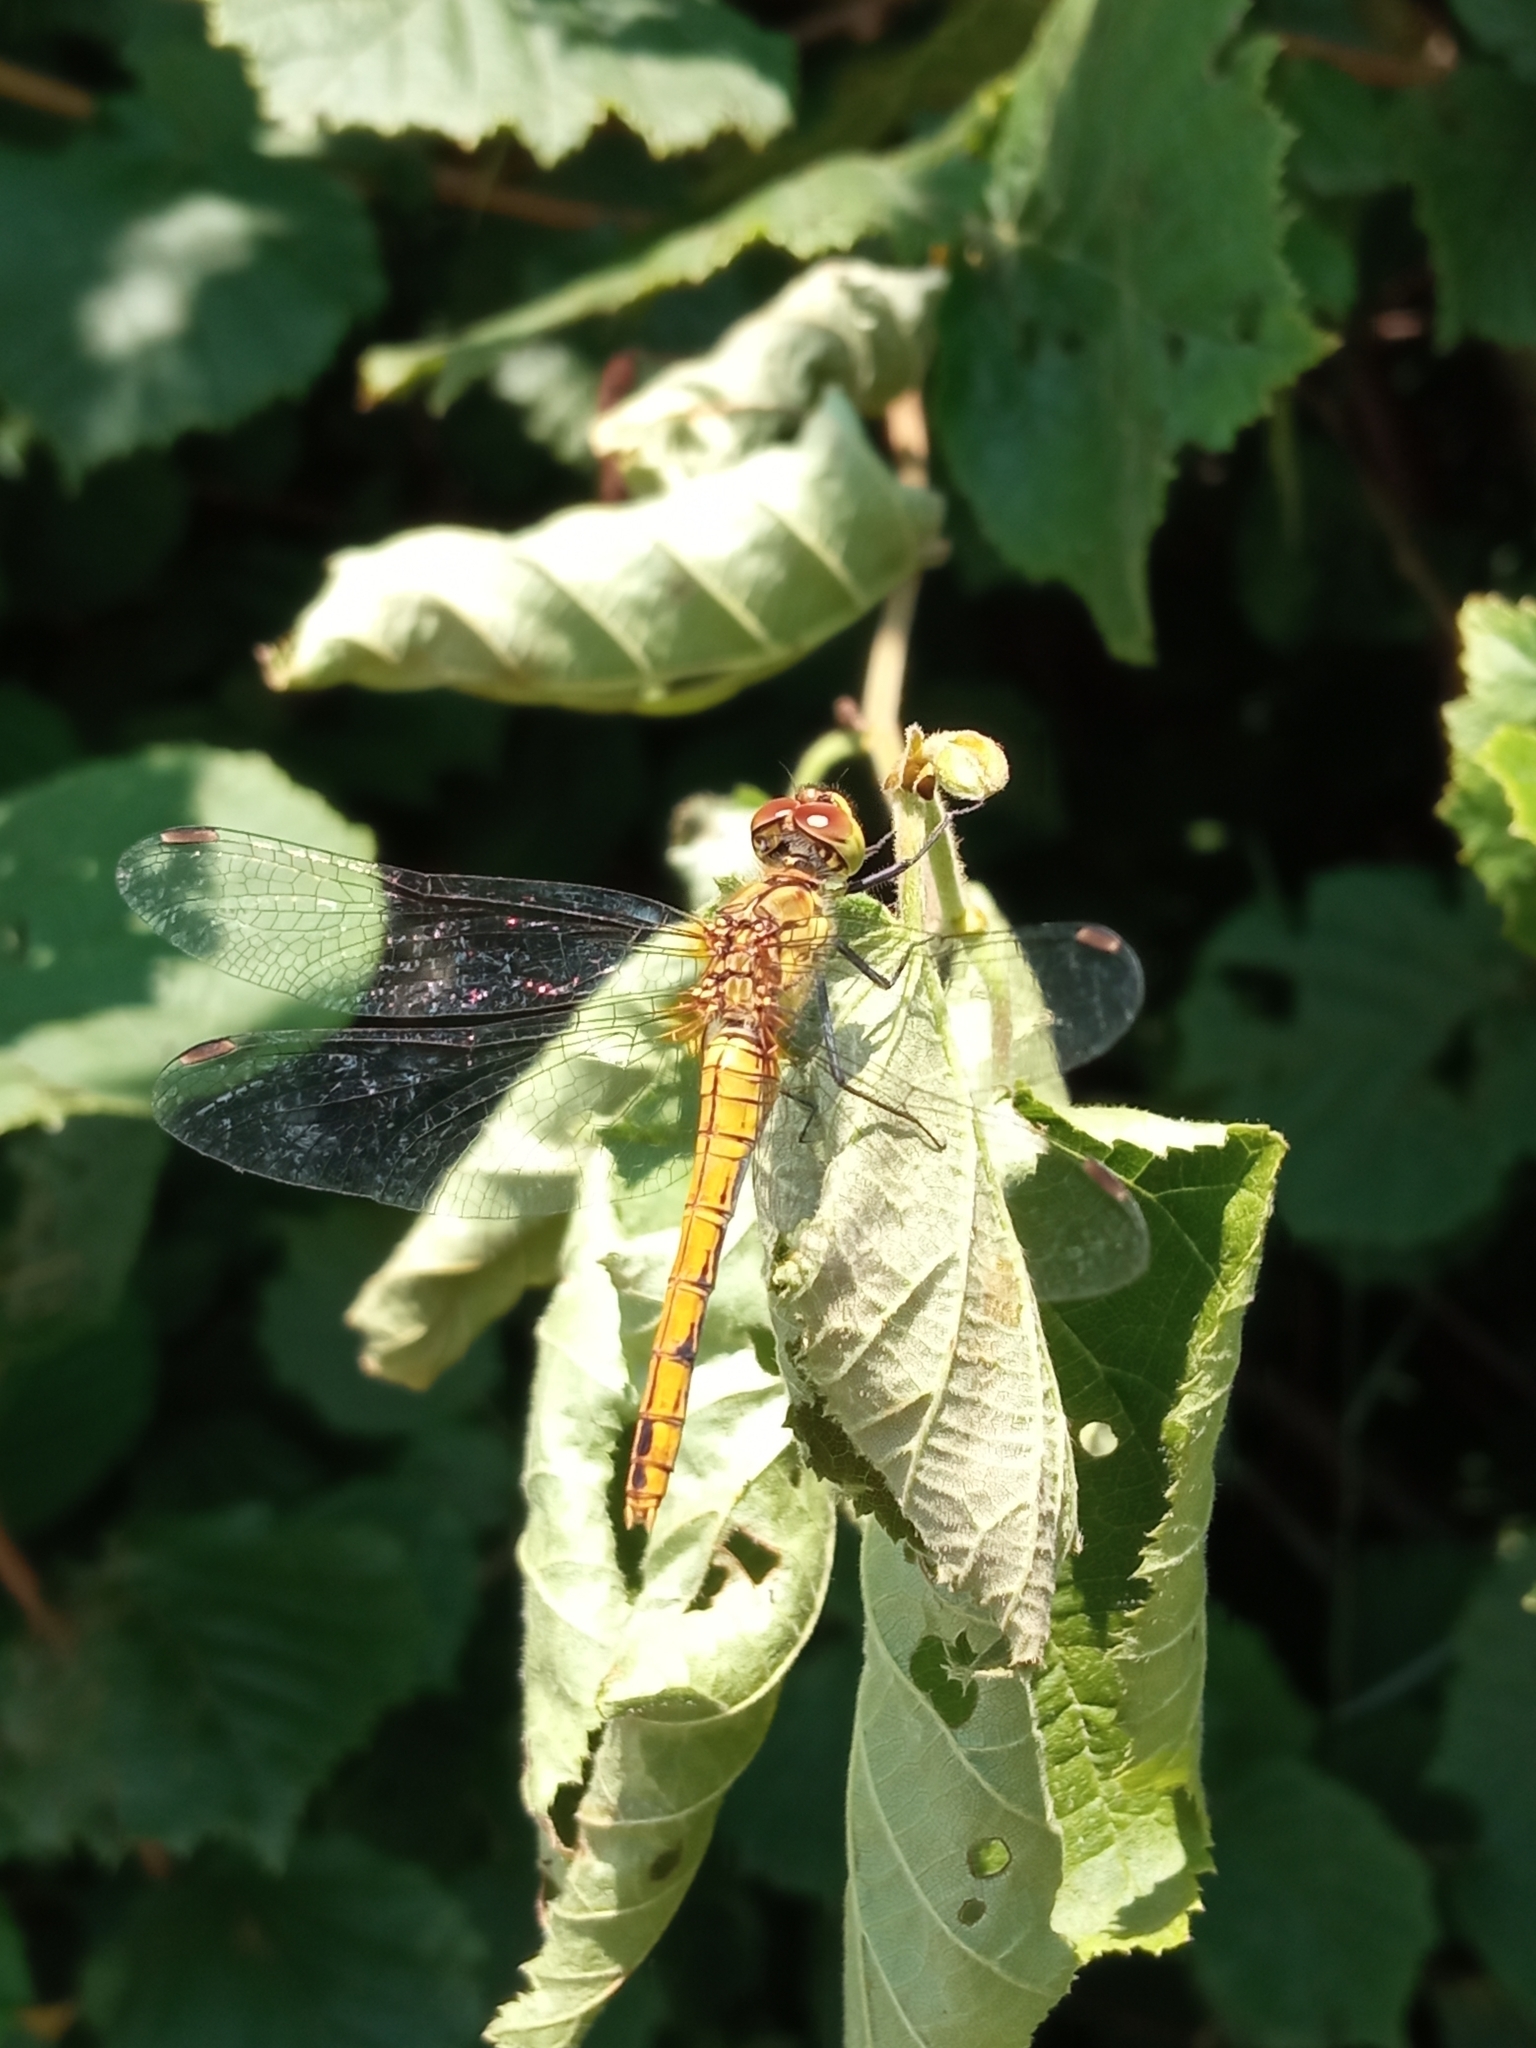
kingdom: Animalia
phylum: Arthropoda
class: Insecta
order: Odonata
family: Libellulidae
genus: Sympetrum
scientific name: Sympetrum sanguineum
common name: Ruddy darter
